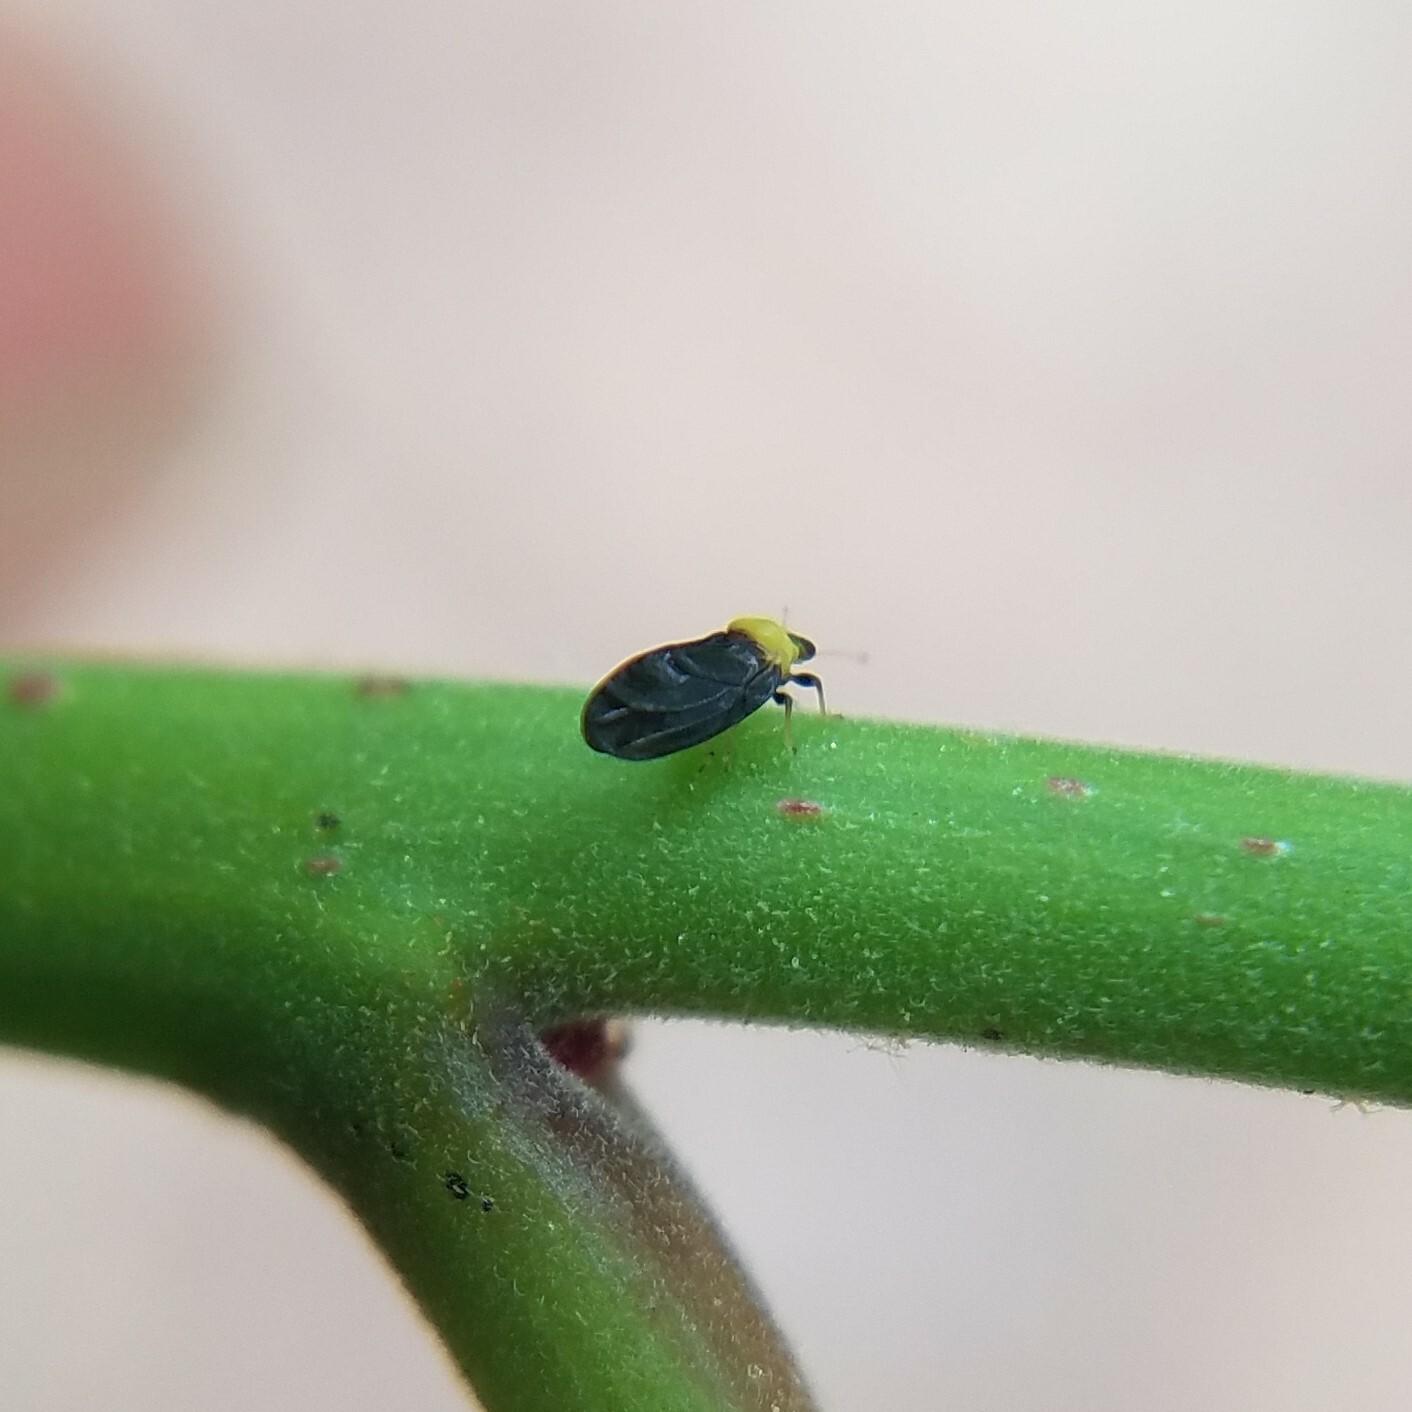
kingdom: Animalia
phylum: Arthropoda
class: Insecta
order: Hemiptera
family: Calophyidae
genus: Calophya
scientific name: Calophya nigripennis
